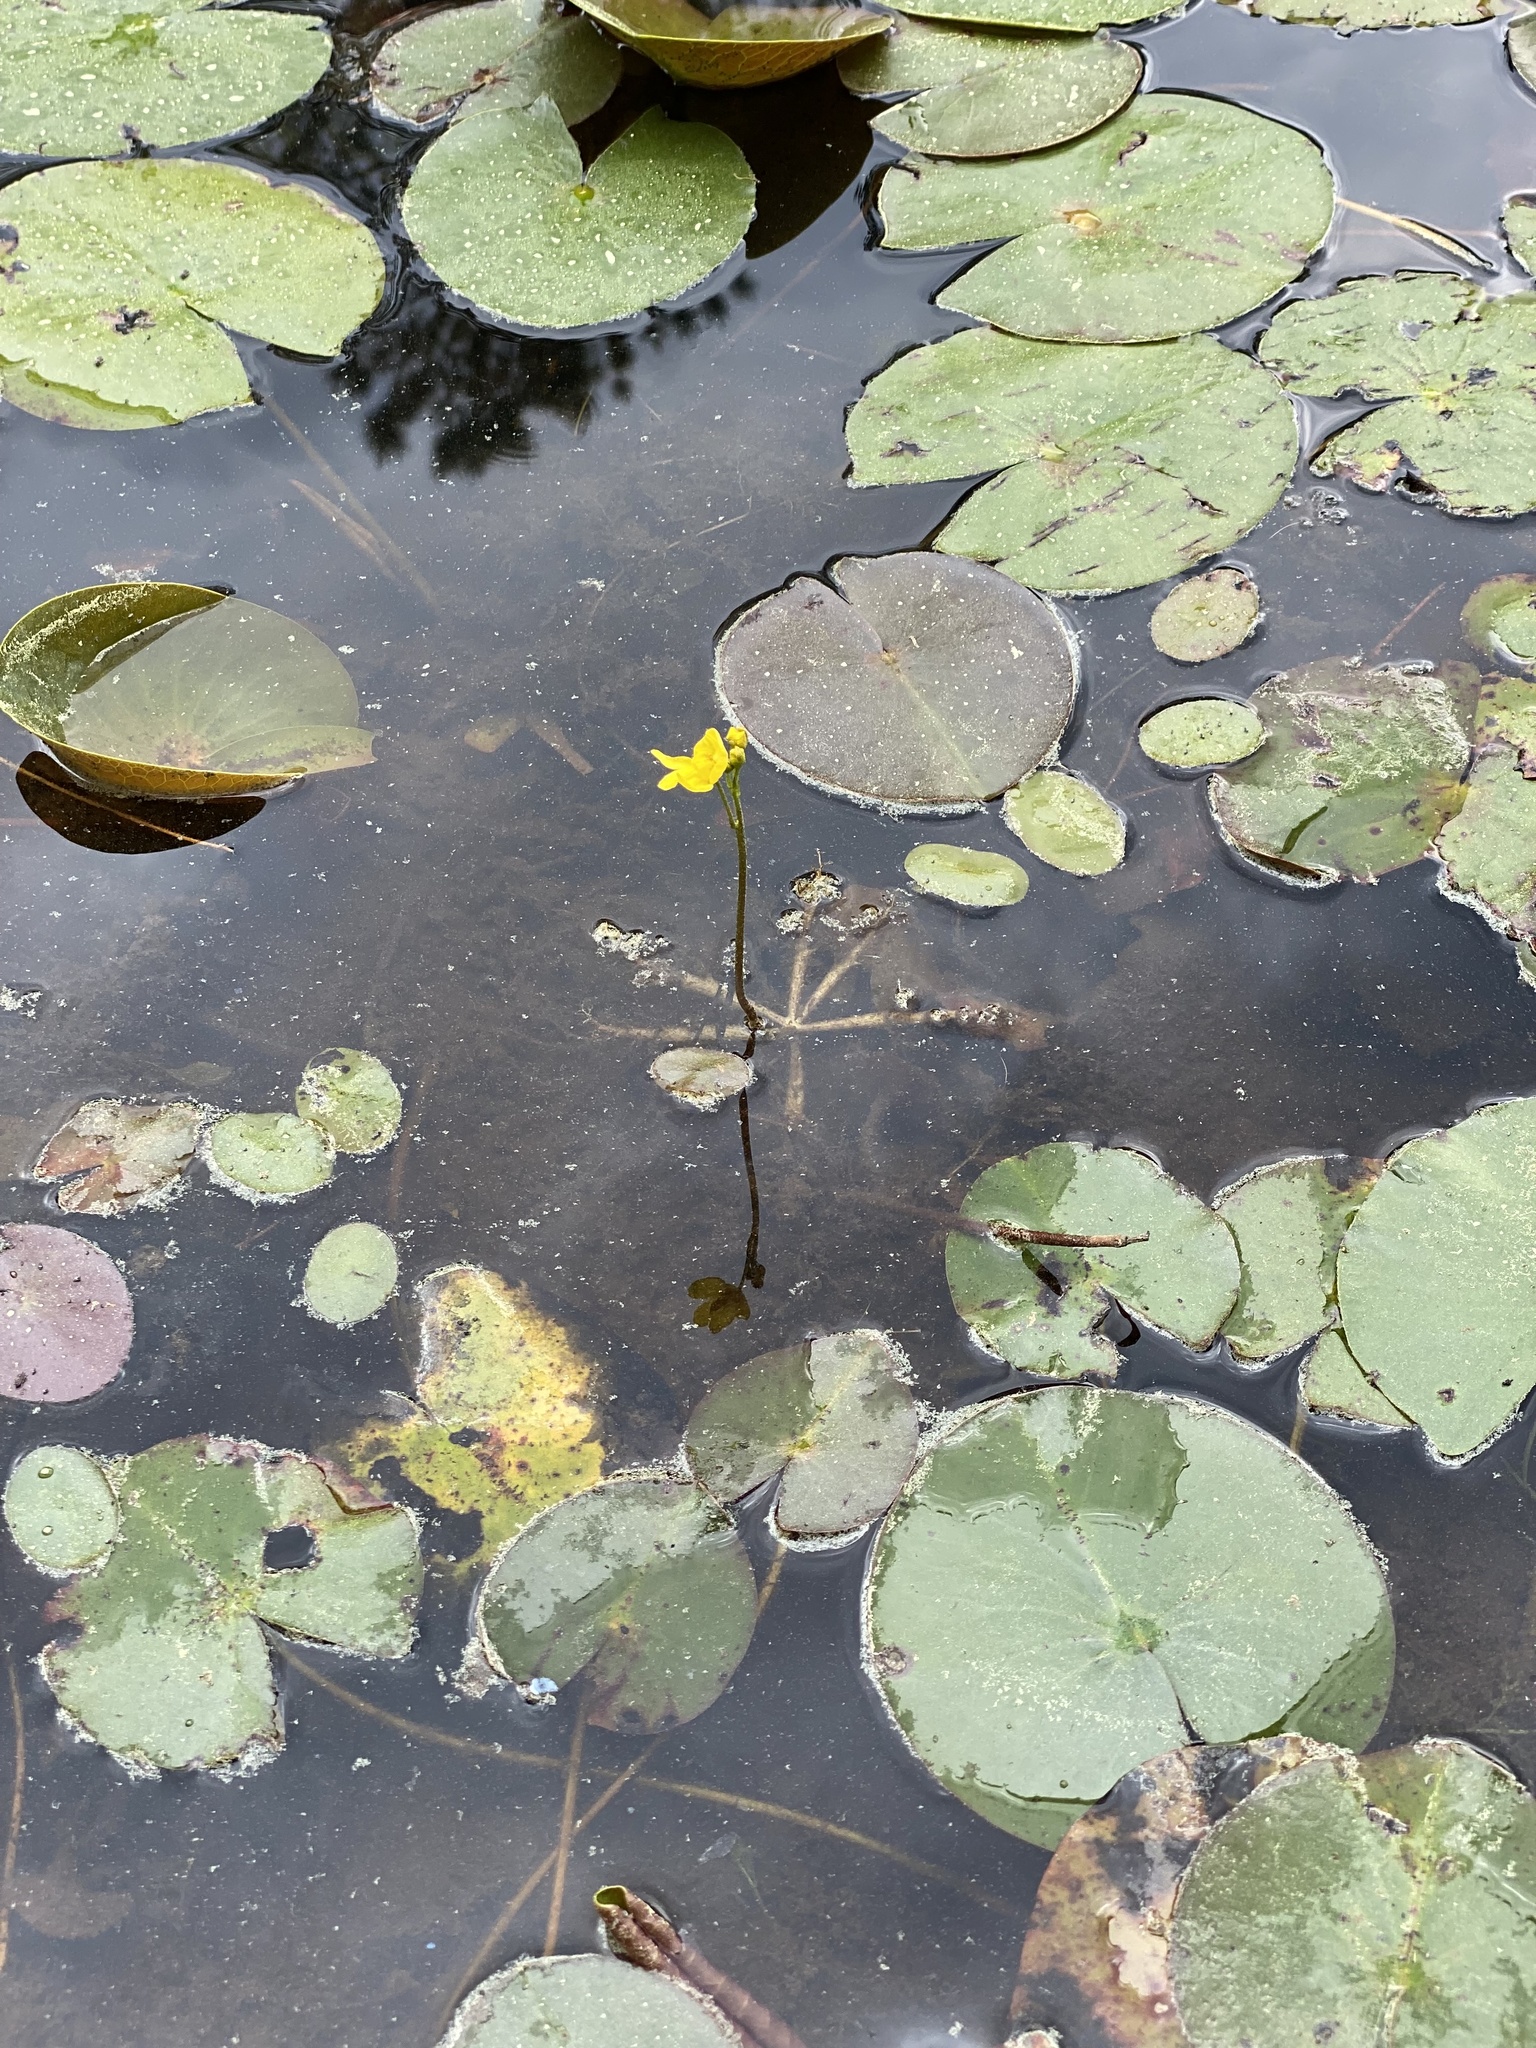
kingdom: Plantae
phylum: Tracheophyta
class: Magnoliopsida
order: Lamiales
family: Lentibulariaceae
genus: Utricularia
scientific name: Utricularia inflata
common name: Floating bladderwort
